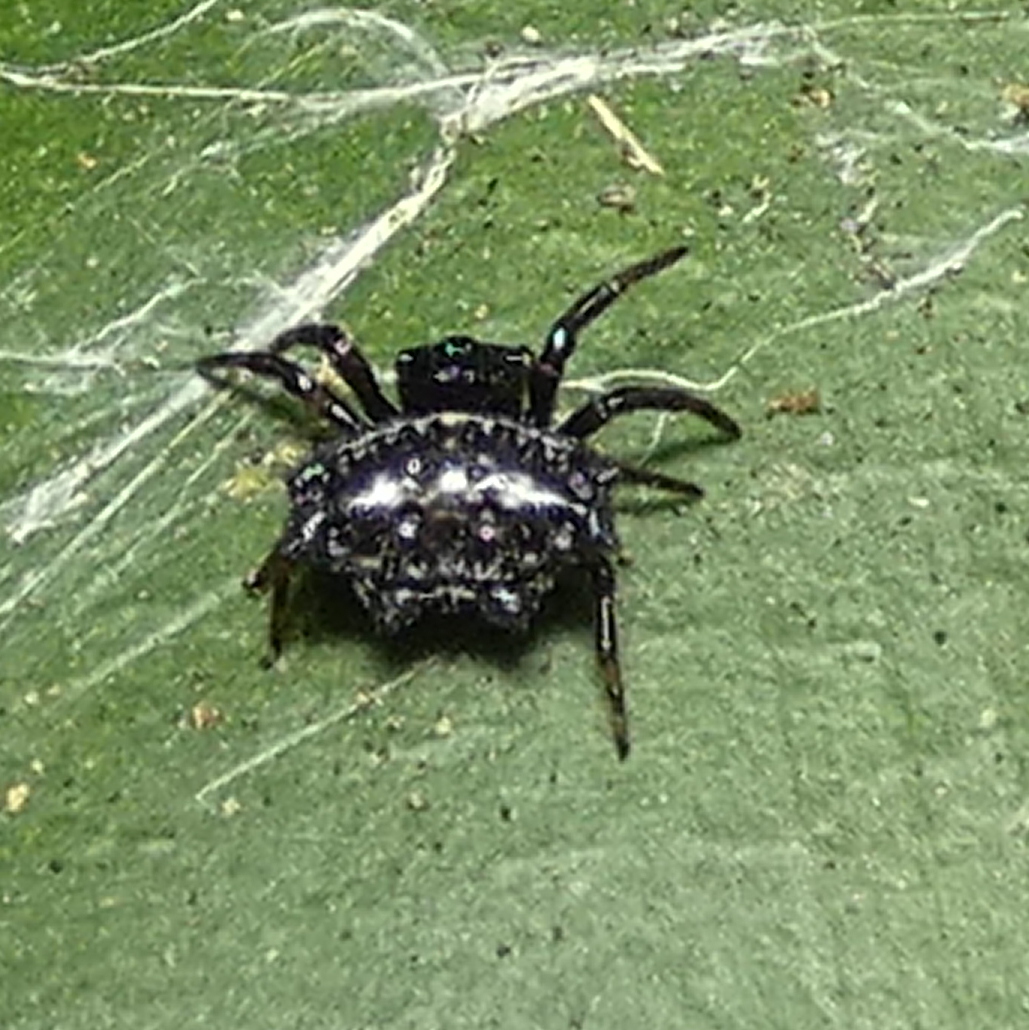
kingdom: Animalia
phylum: Arthropoda
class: Arachnida
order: Araneae
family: Araneidae
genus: Gasteracantha
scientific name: Gasteracantha cancriformis
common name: Orb weavers
